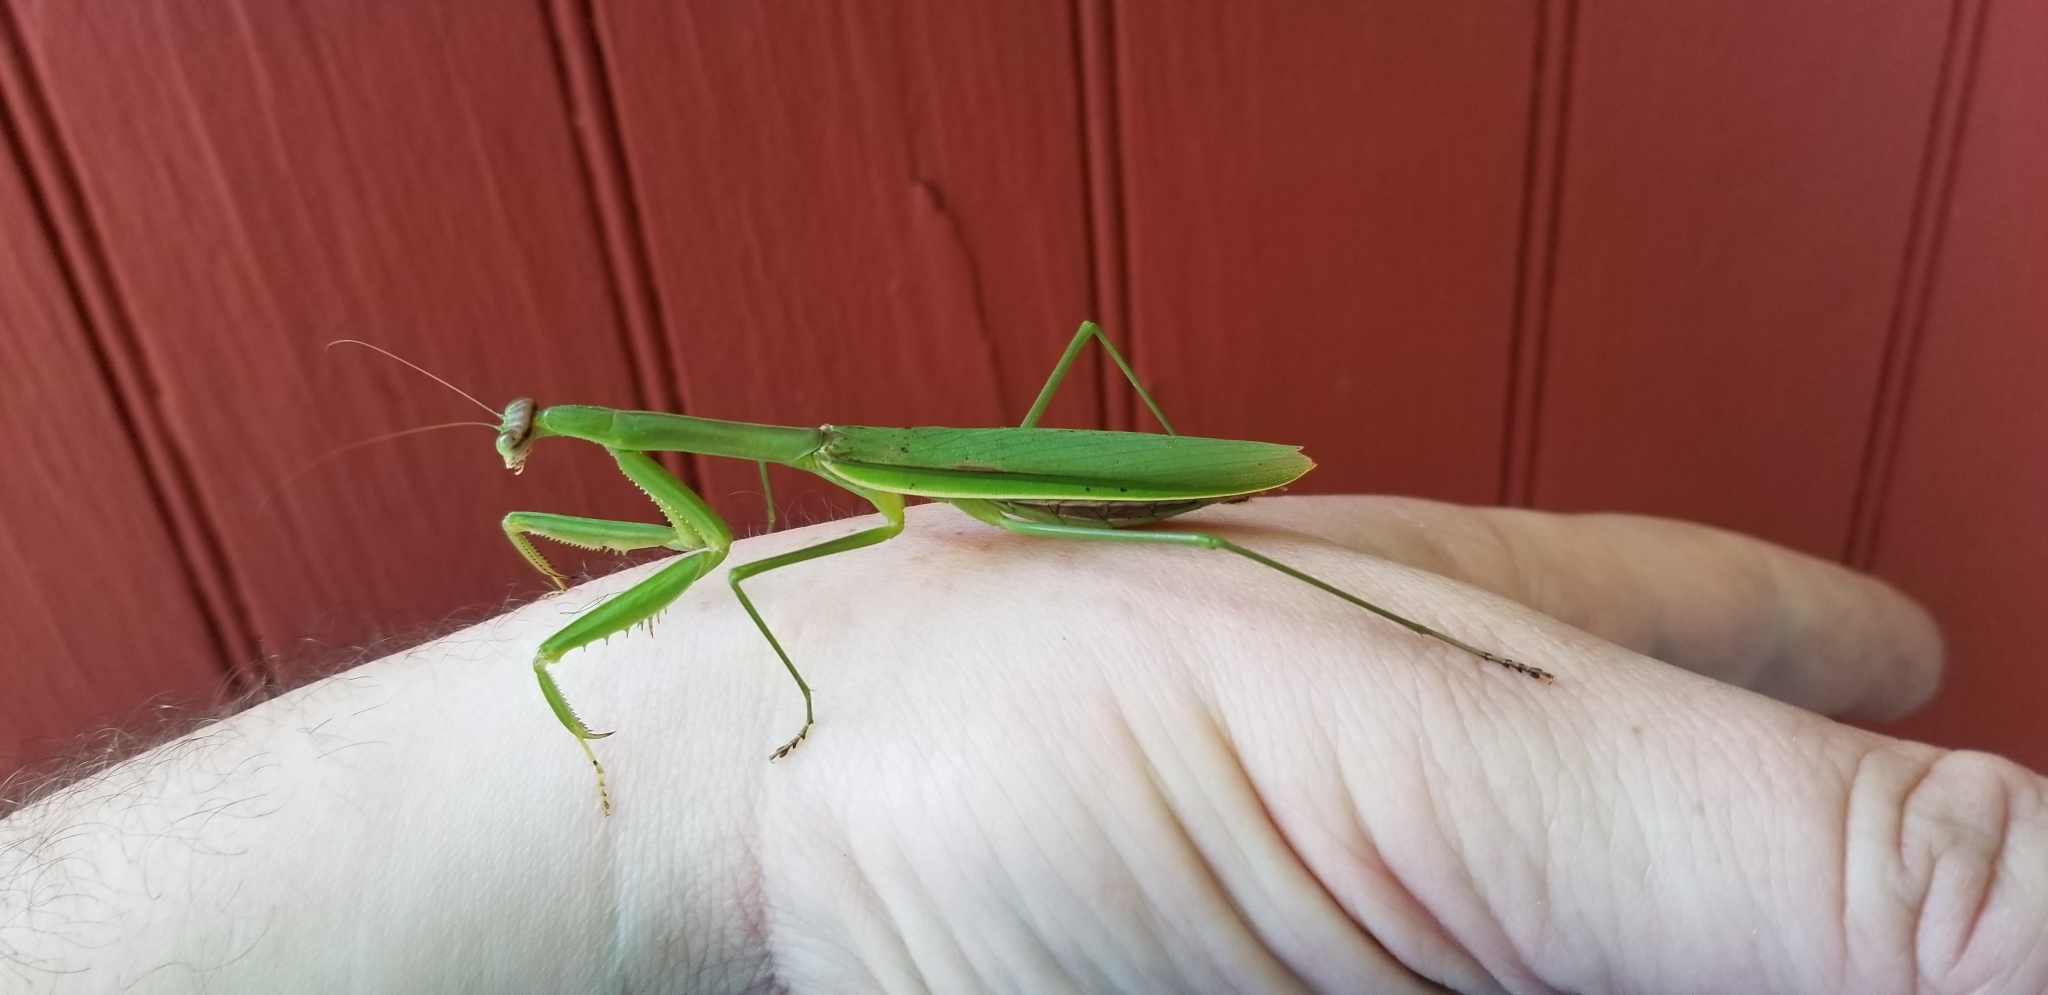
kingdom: Animalia
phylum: Arthropoda
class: Insecta
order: Mantodea
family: Mantidae
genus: Tenodera
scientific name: Tenodera angustipennis
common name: Asian mantis
